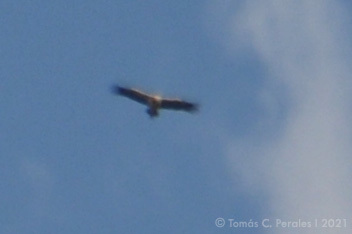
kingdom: Animalia
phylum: Chordata
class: Aves
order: Accipitriformes
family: Cathartidae
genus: Sarcoramphus
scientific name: Sarcoramphus papa
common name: King vulture
